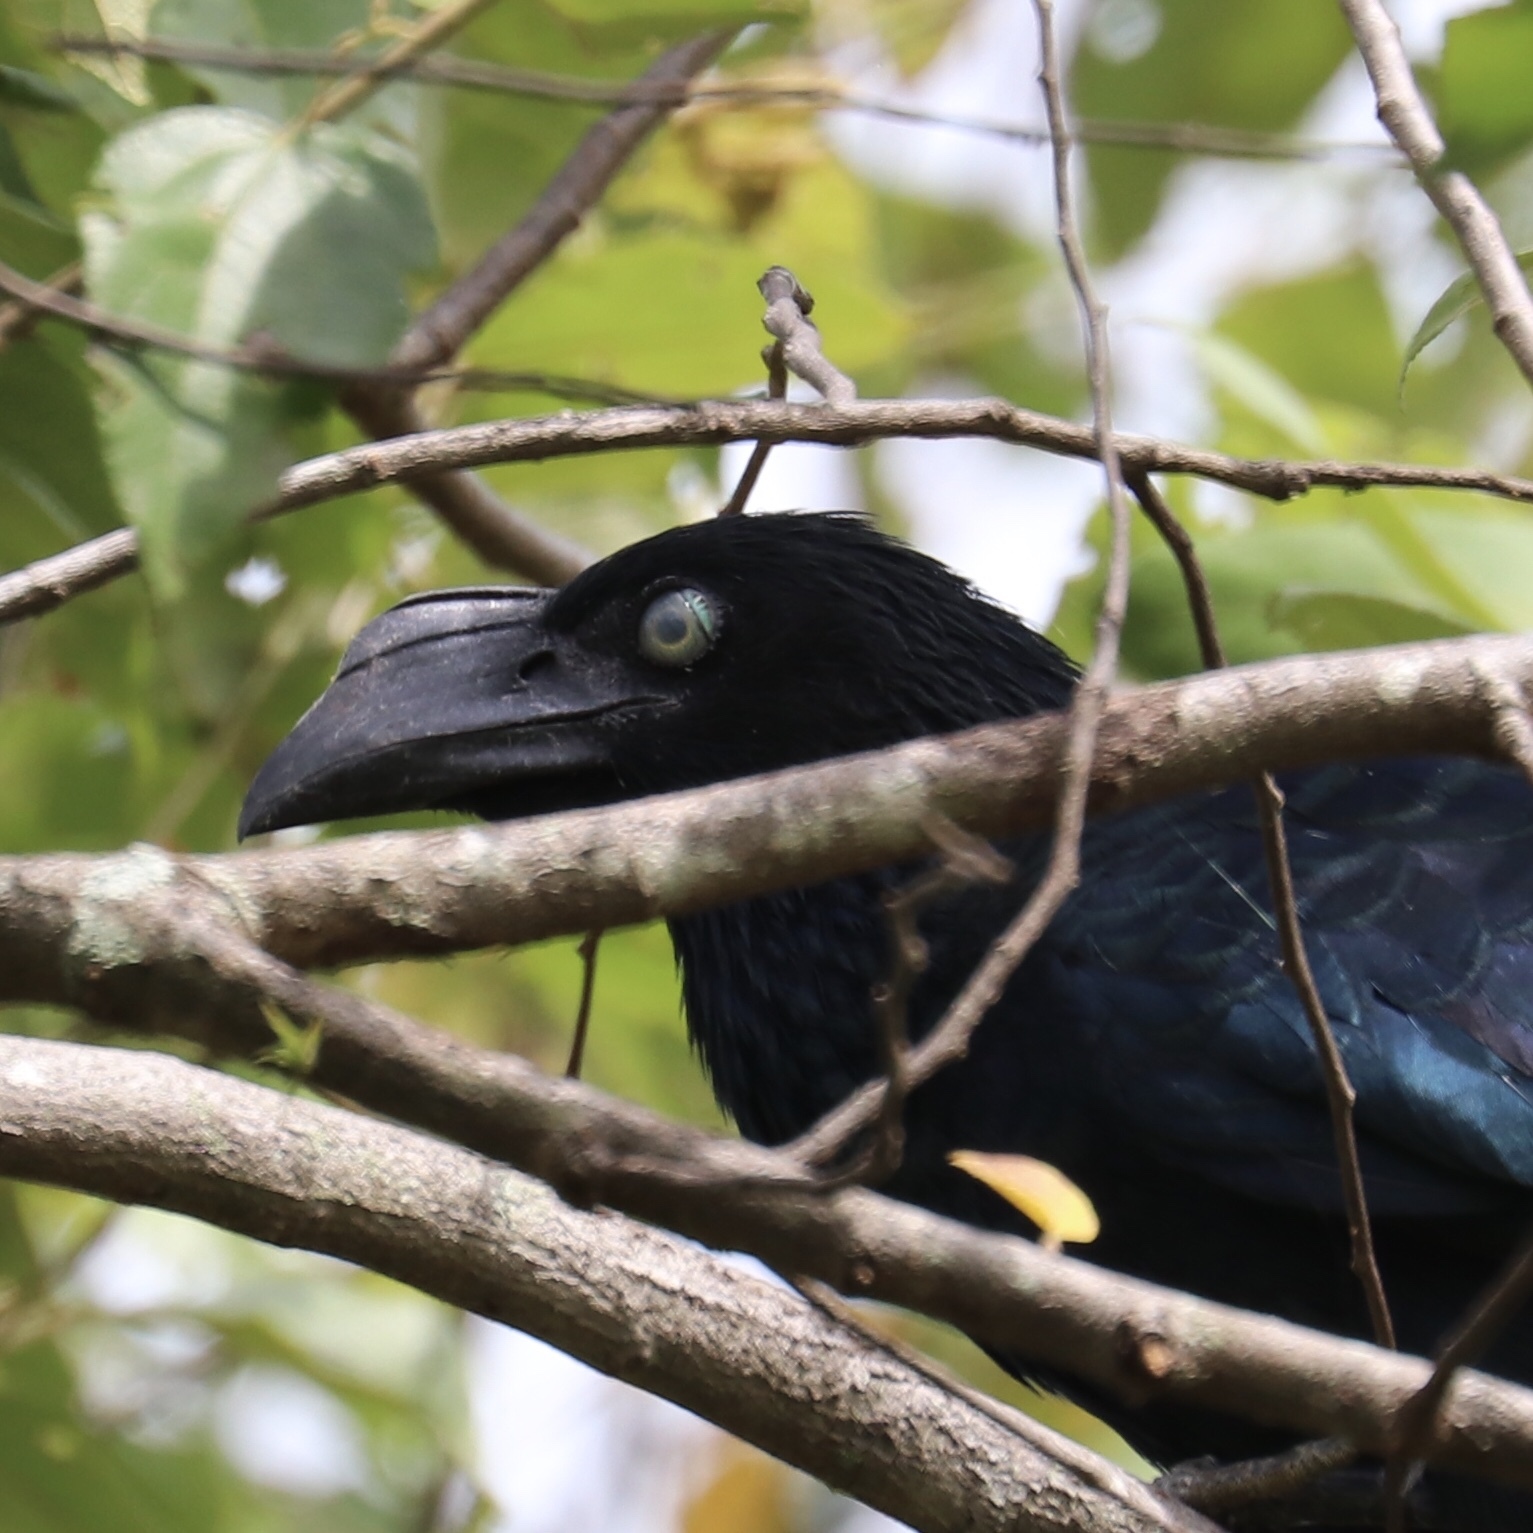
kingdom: Animalia
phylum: Chordata
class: Aves
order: Cuculiformes
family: Cuculidae
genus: Crotophaga
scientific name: Crotophaga major
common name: Greater ani
